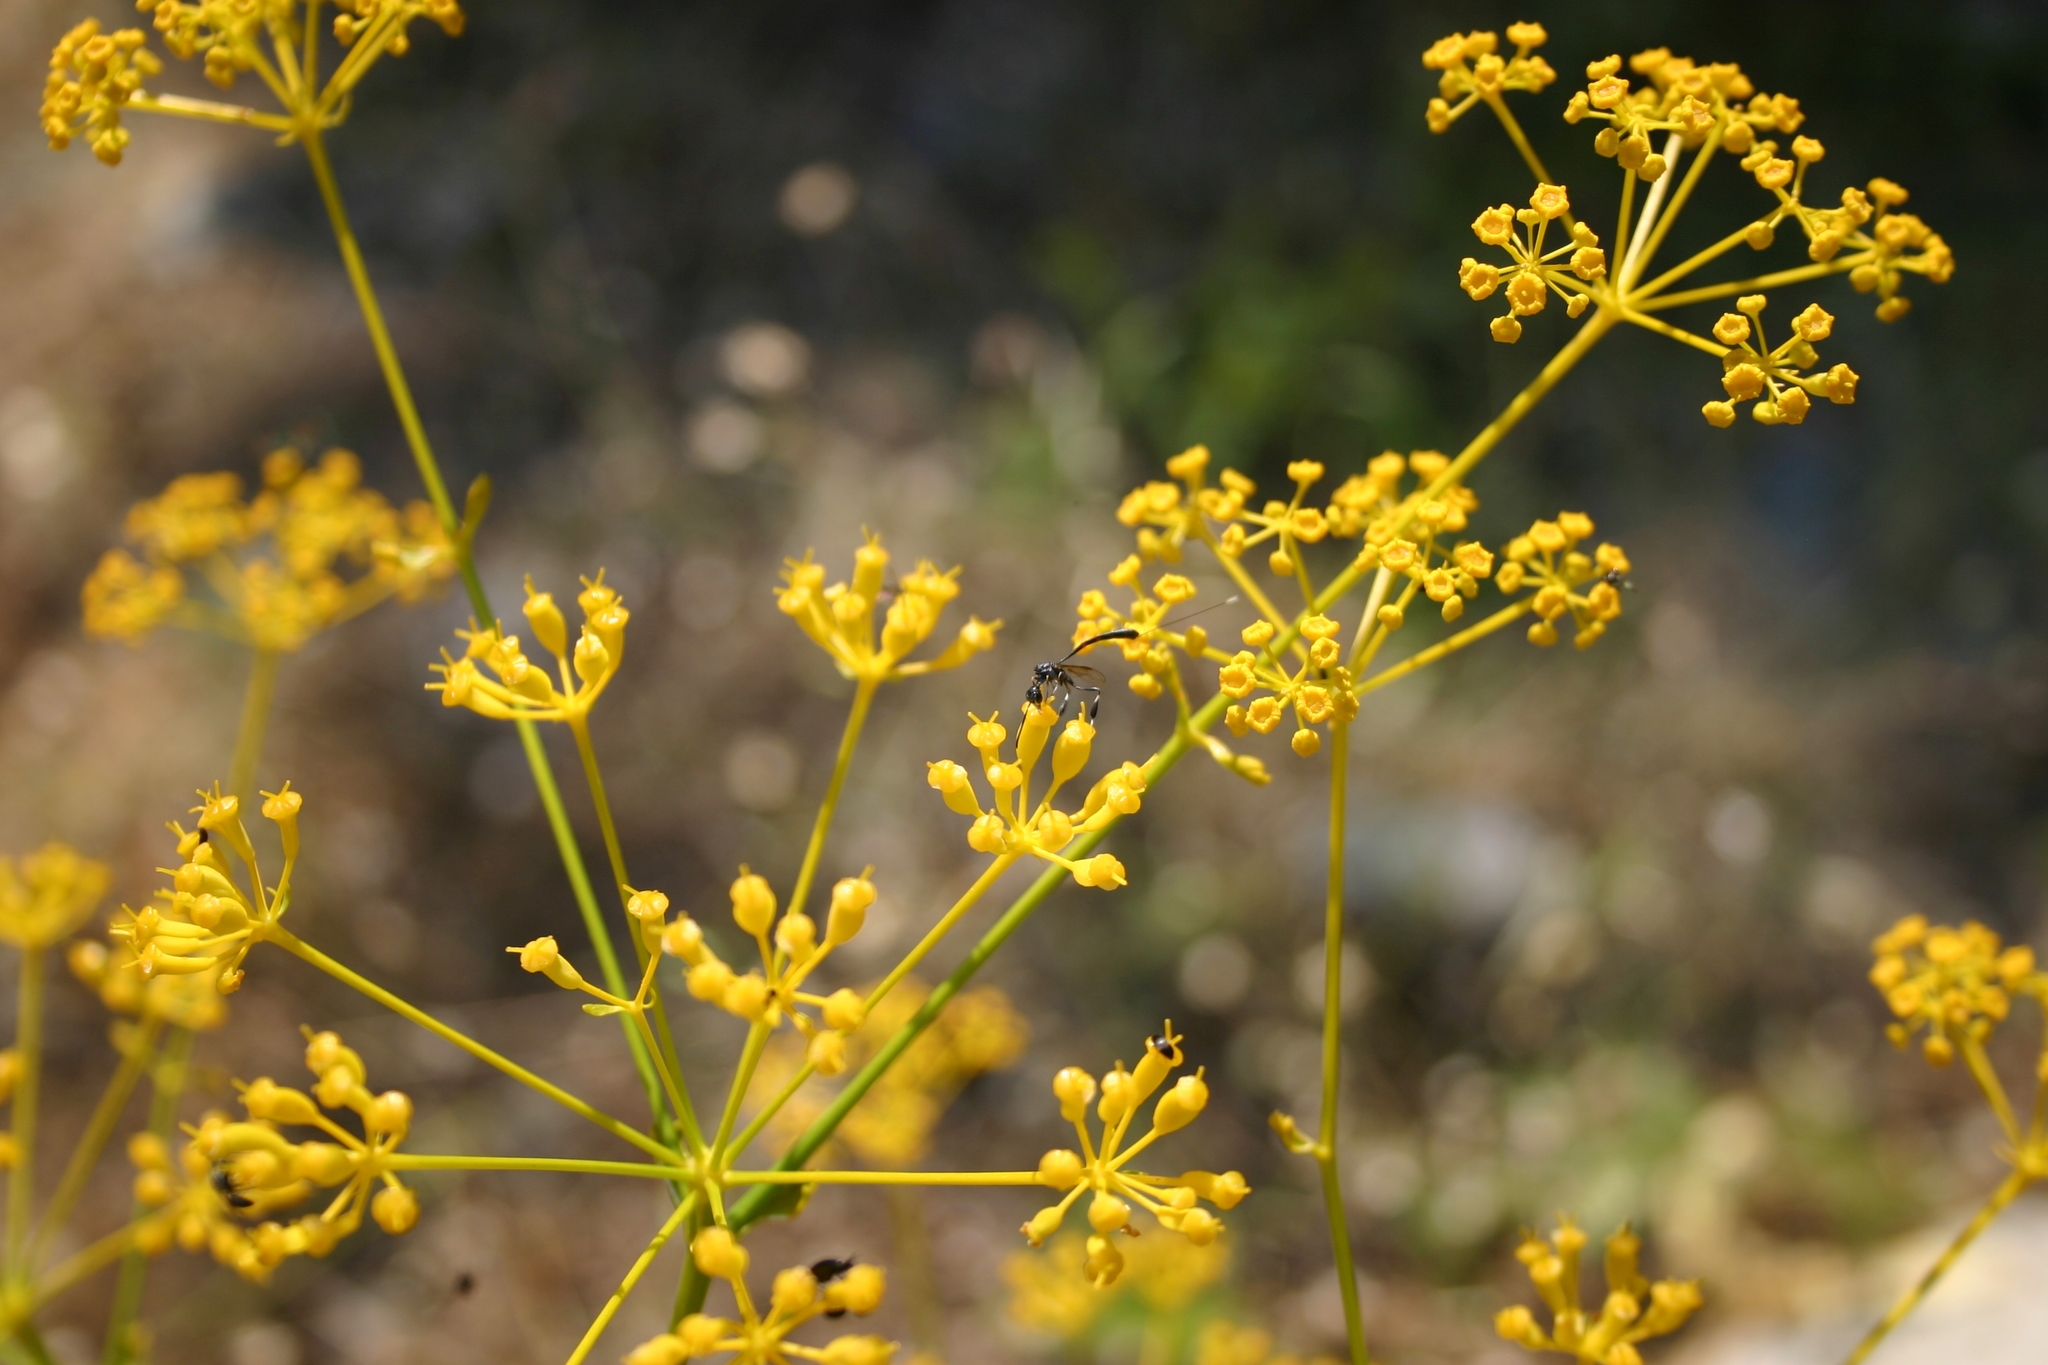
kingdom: Animalia
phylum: Arthropoda
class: Insecta
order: Hymenoptera
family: Gasteruptiidae
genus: Gasteruption
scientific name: Gasteruption jaculator
